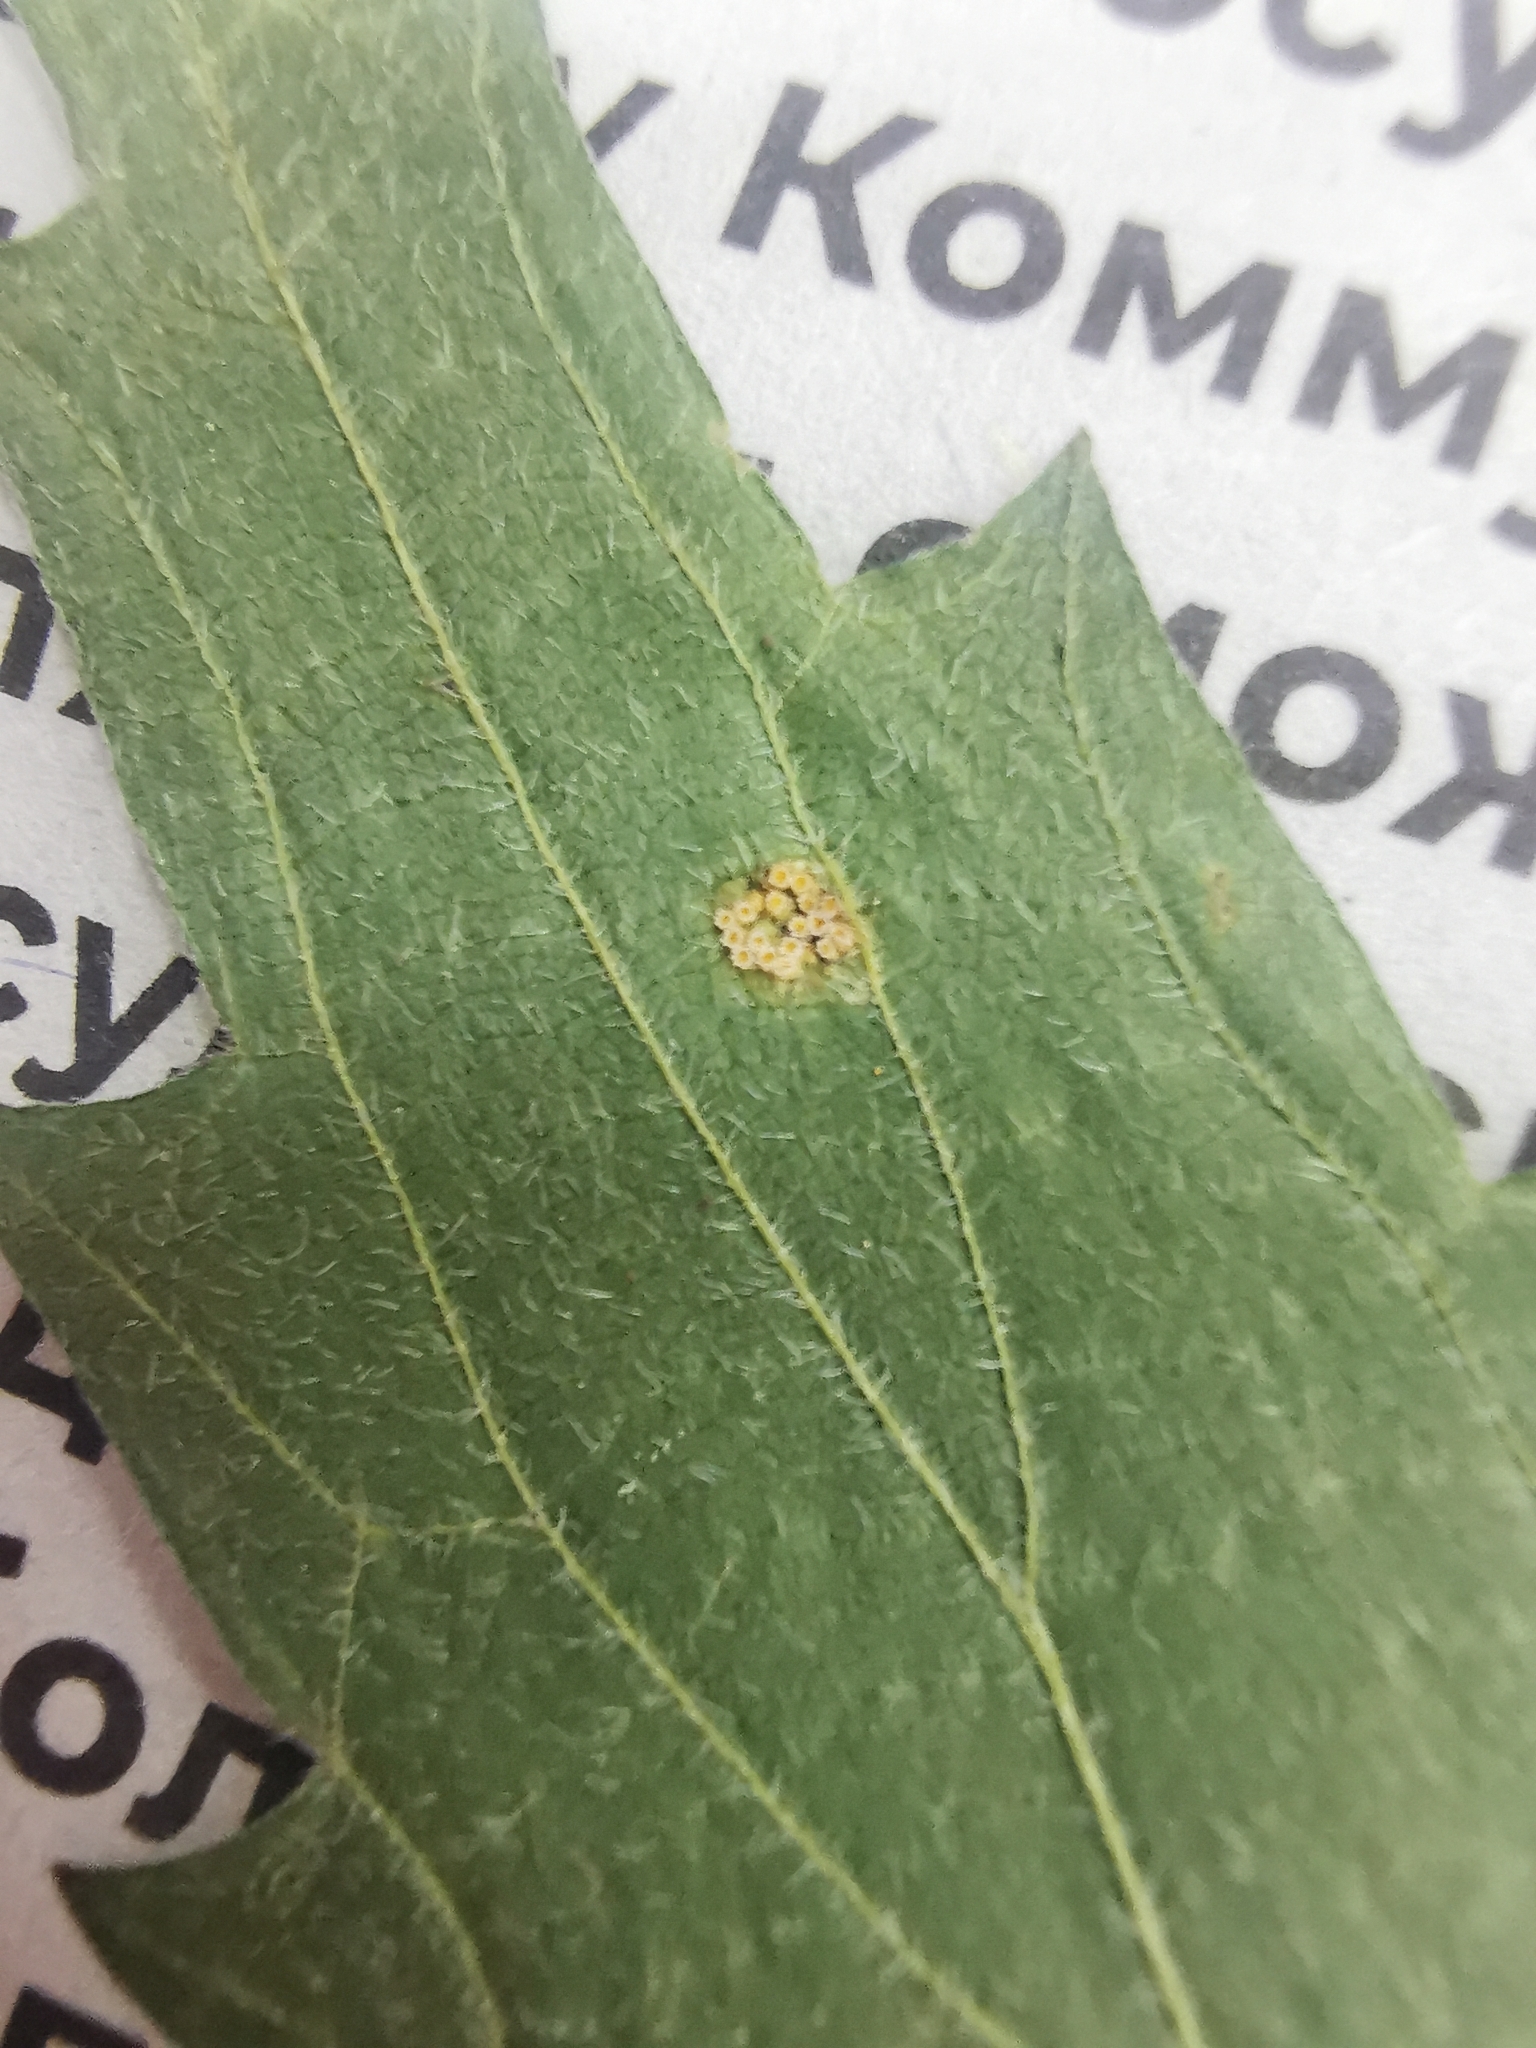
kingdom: Fungi
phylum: Basidiomycota
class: Pucciniomycetes
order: Pucciniales
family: Pucciniaceae
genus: Puccinia
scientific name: Puccinia urticata
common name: Nettle clustercup rust fungus
